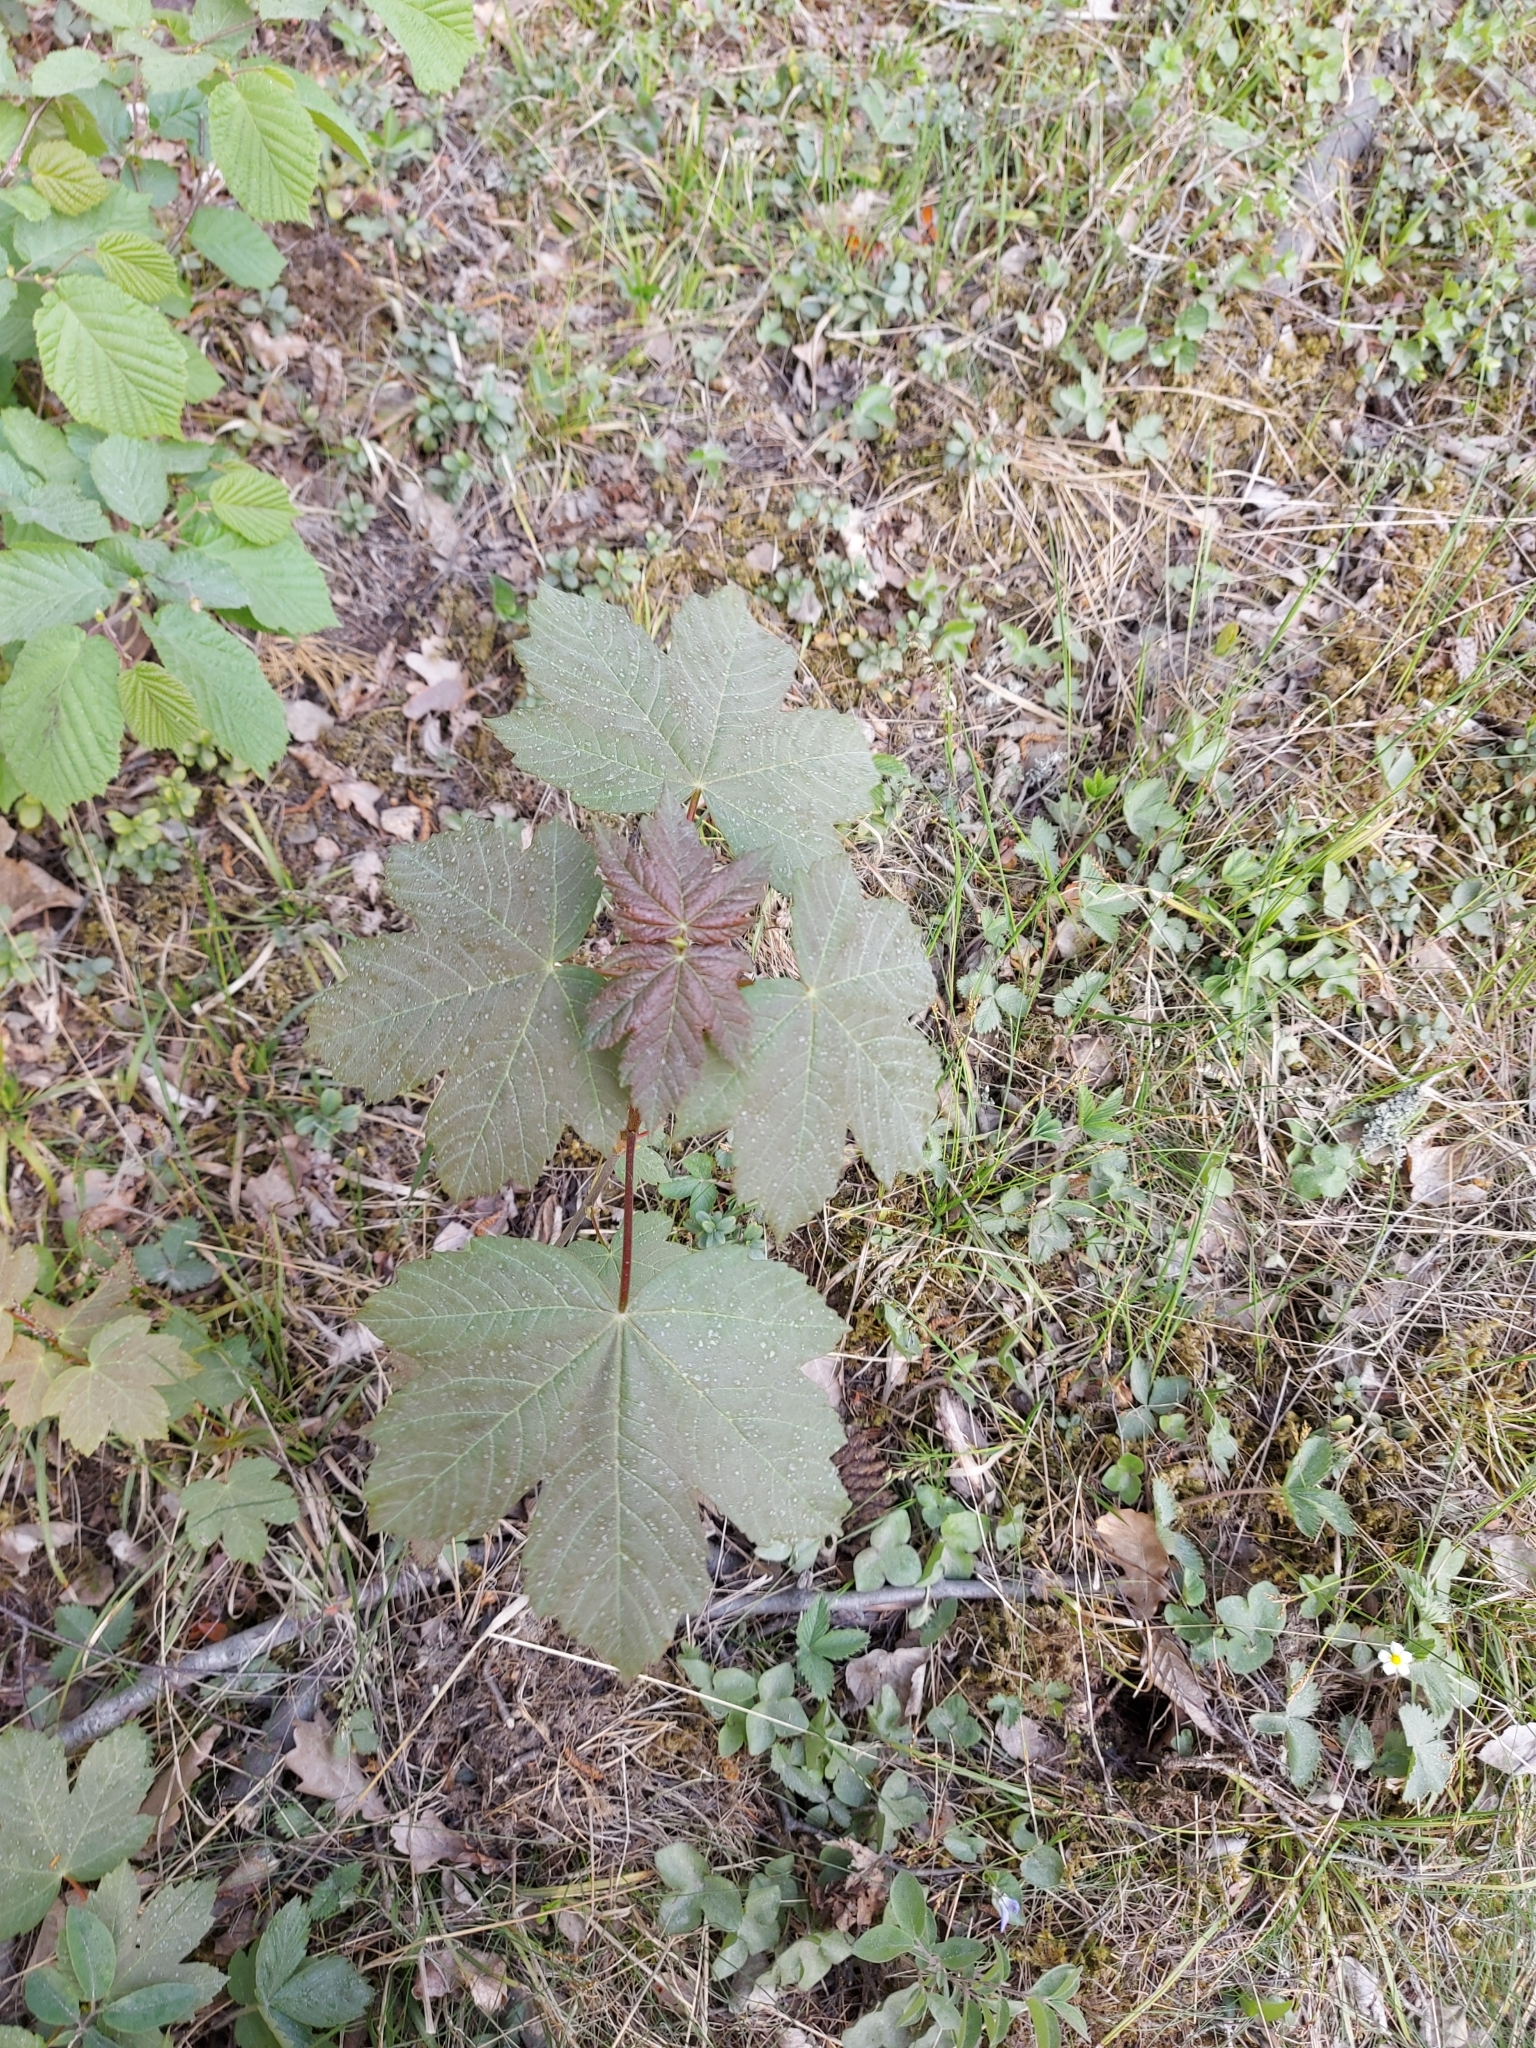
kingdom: Plantae
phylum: Tracheophyta
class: Magnoliopsida
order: Sapindales
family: Sapindaceae
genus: Acer
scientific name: Acer pseudoplatanus
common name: Sycamore
